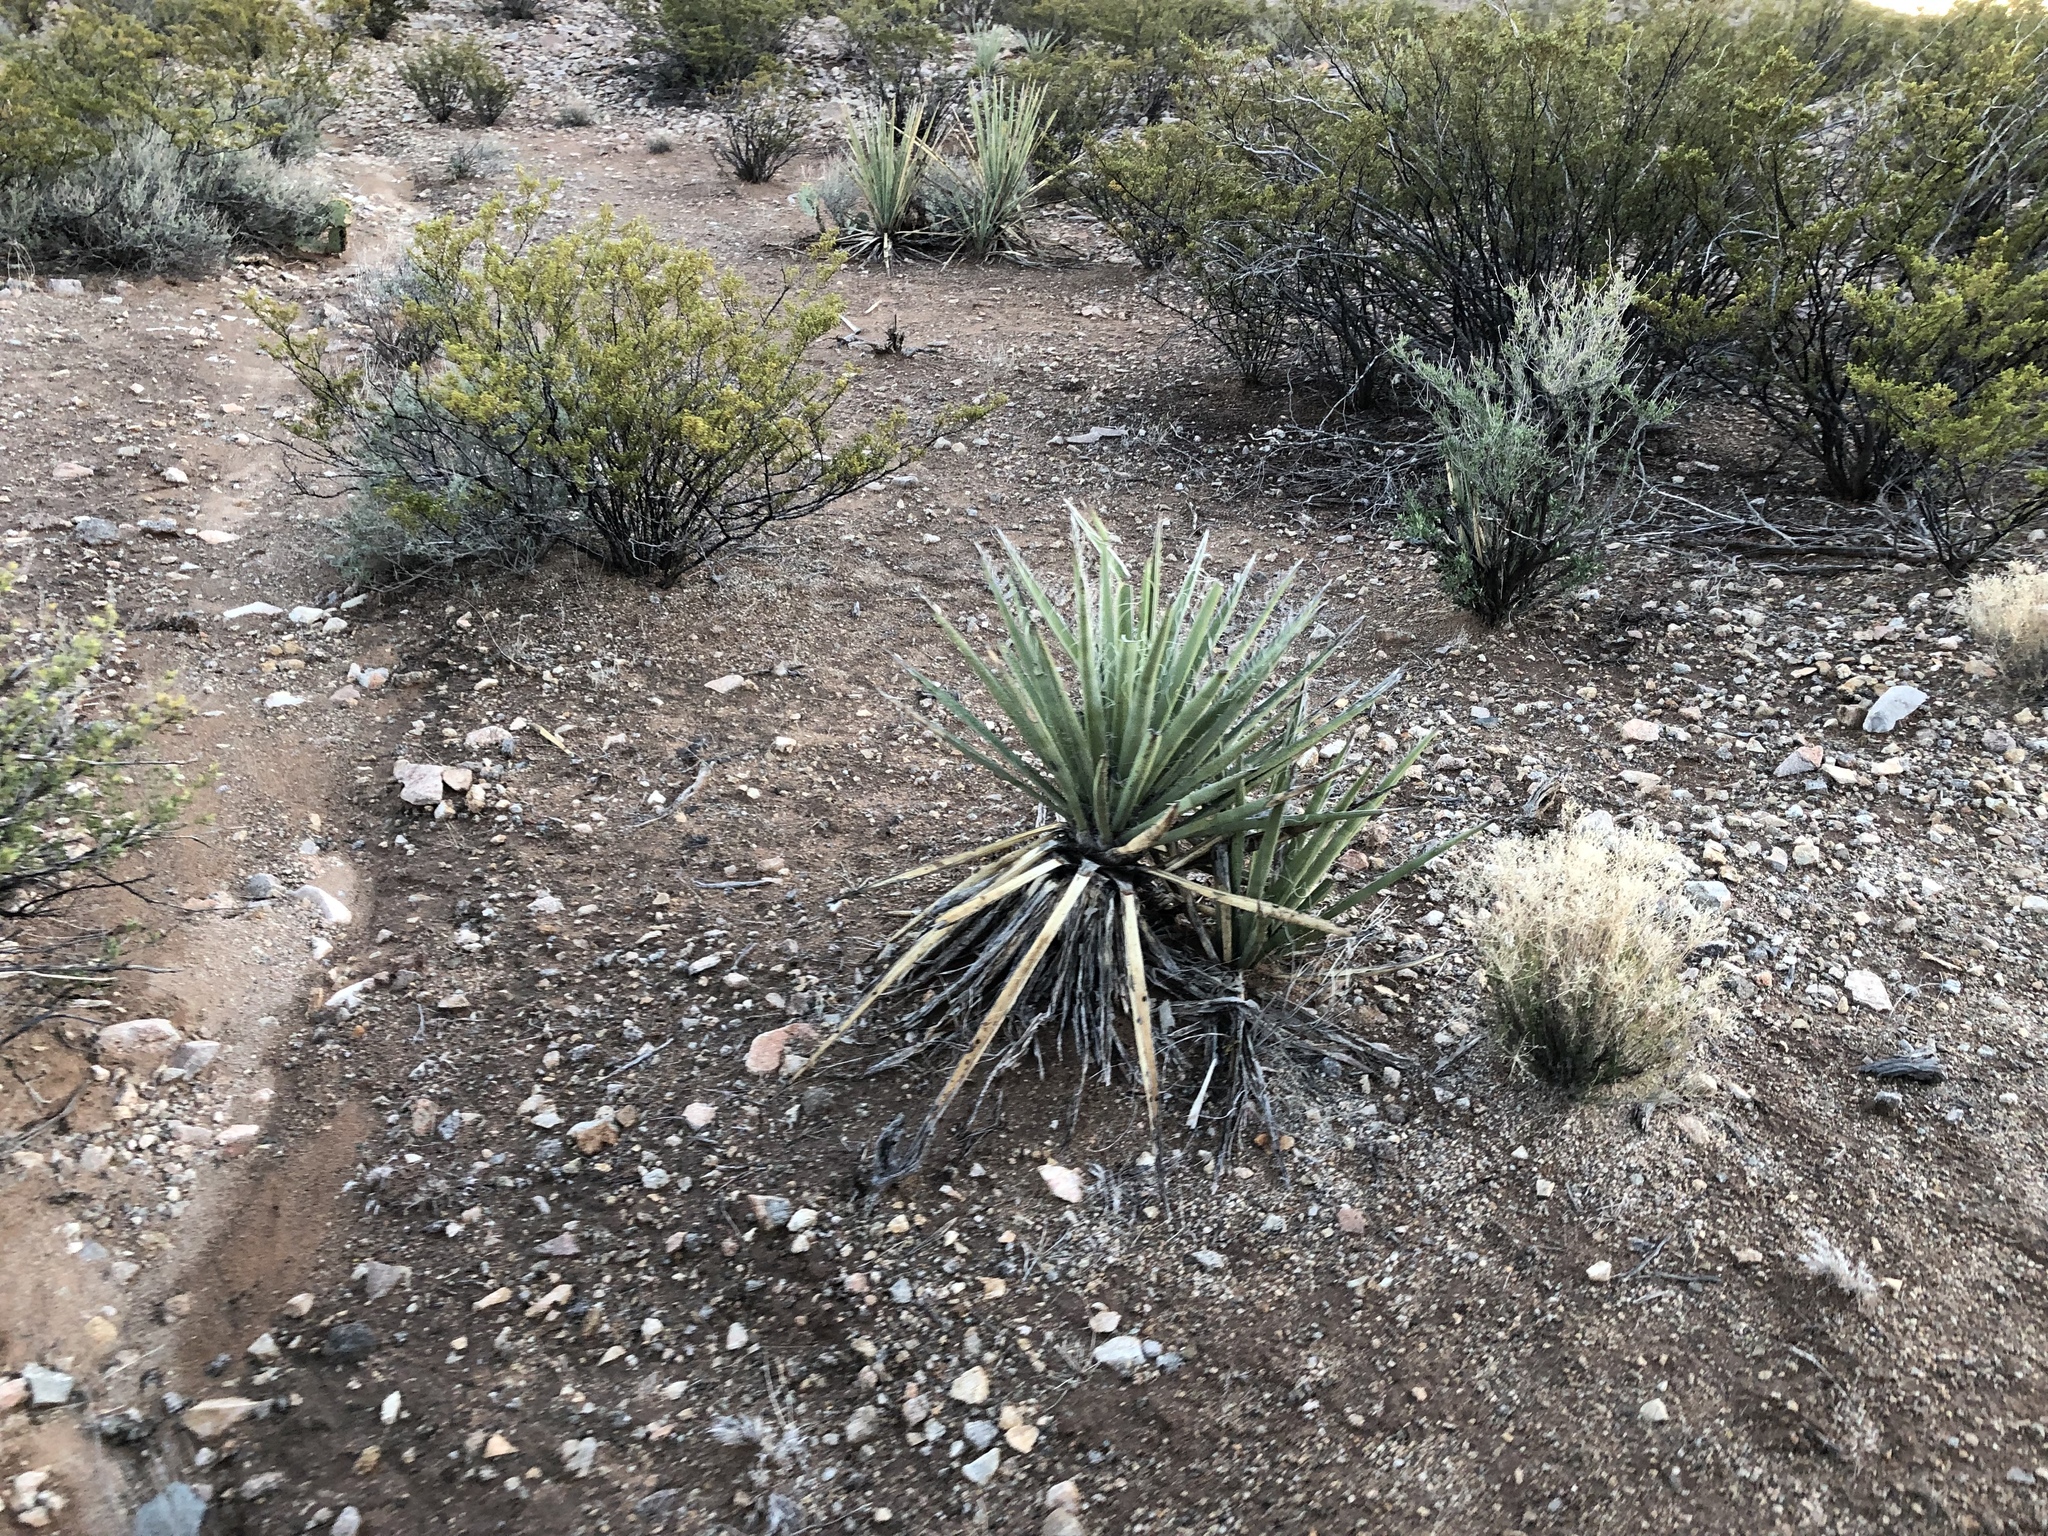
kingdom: Plantae
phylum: Tracheophyta
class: Liliopsida
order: Asparagales
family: Asparagaceae
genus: Yucca
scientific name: Yucca baccata
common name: Banana yucca
